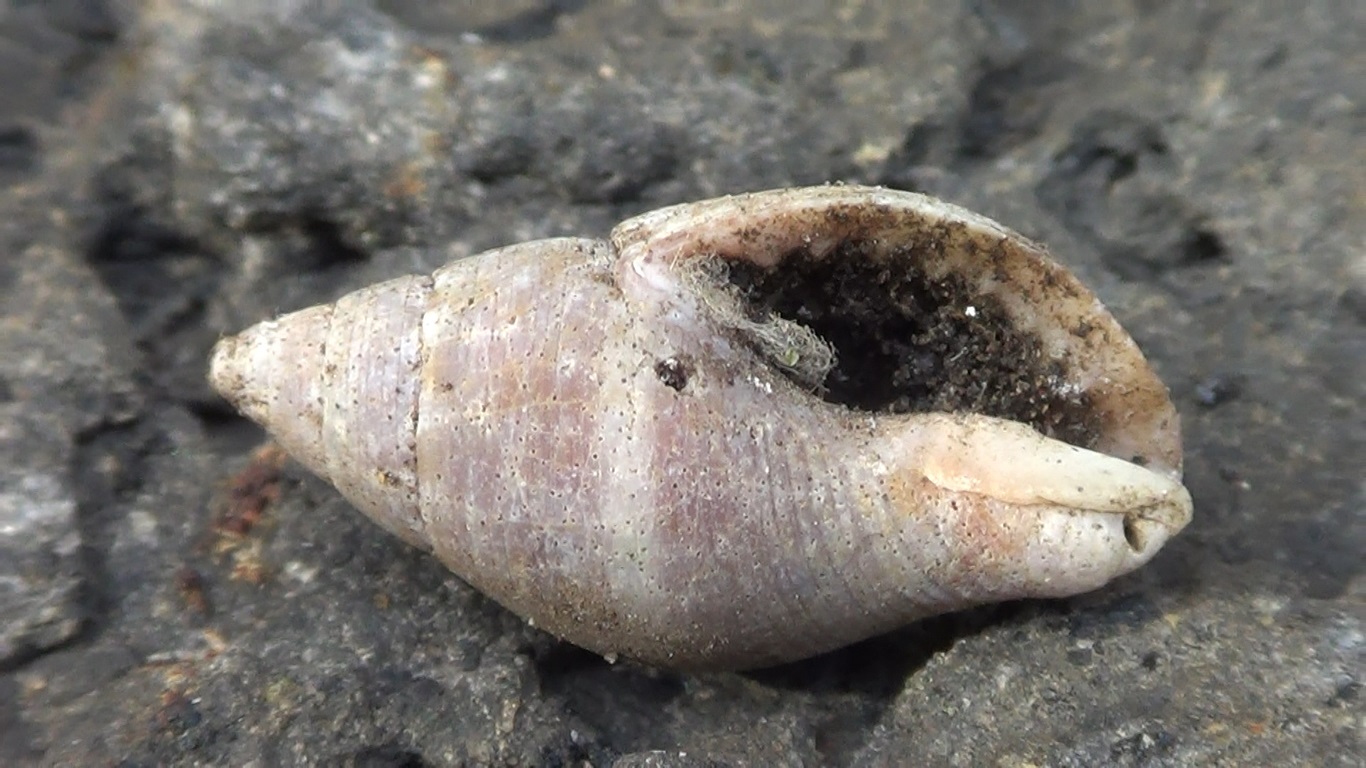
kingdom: Animalia
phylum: Mollusca
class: Gastropoda
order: Neogastropoda
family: Pisaniidae
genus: Pisania
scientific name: Pisania striata
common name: Spotted pisania
